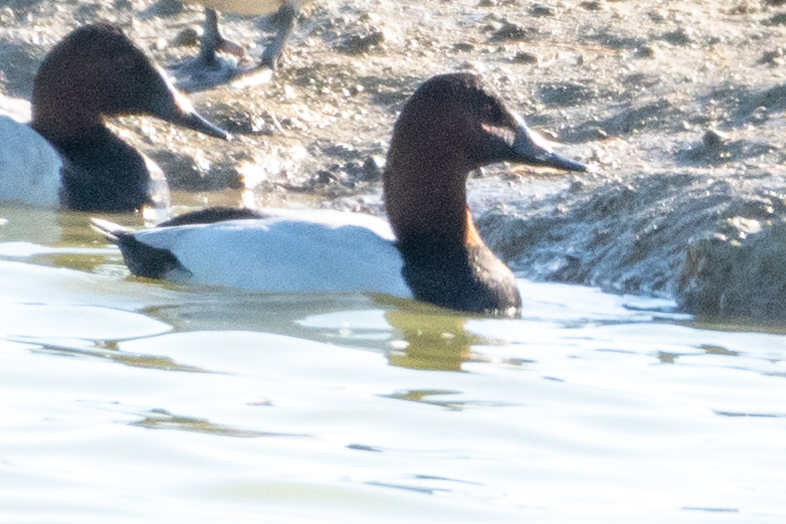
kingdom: Animalia
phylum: Chordata
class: Aves
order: Anseriformes
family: Anatidae
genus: Aythya
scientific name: Aythya valisineria
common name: Canvasback
